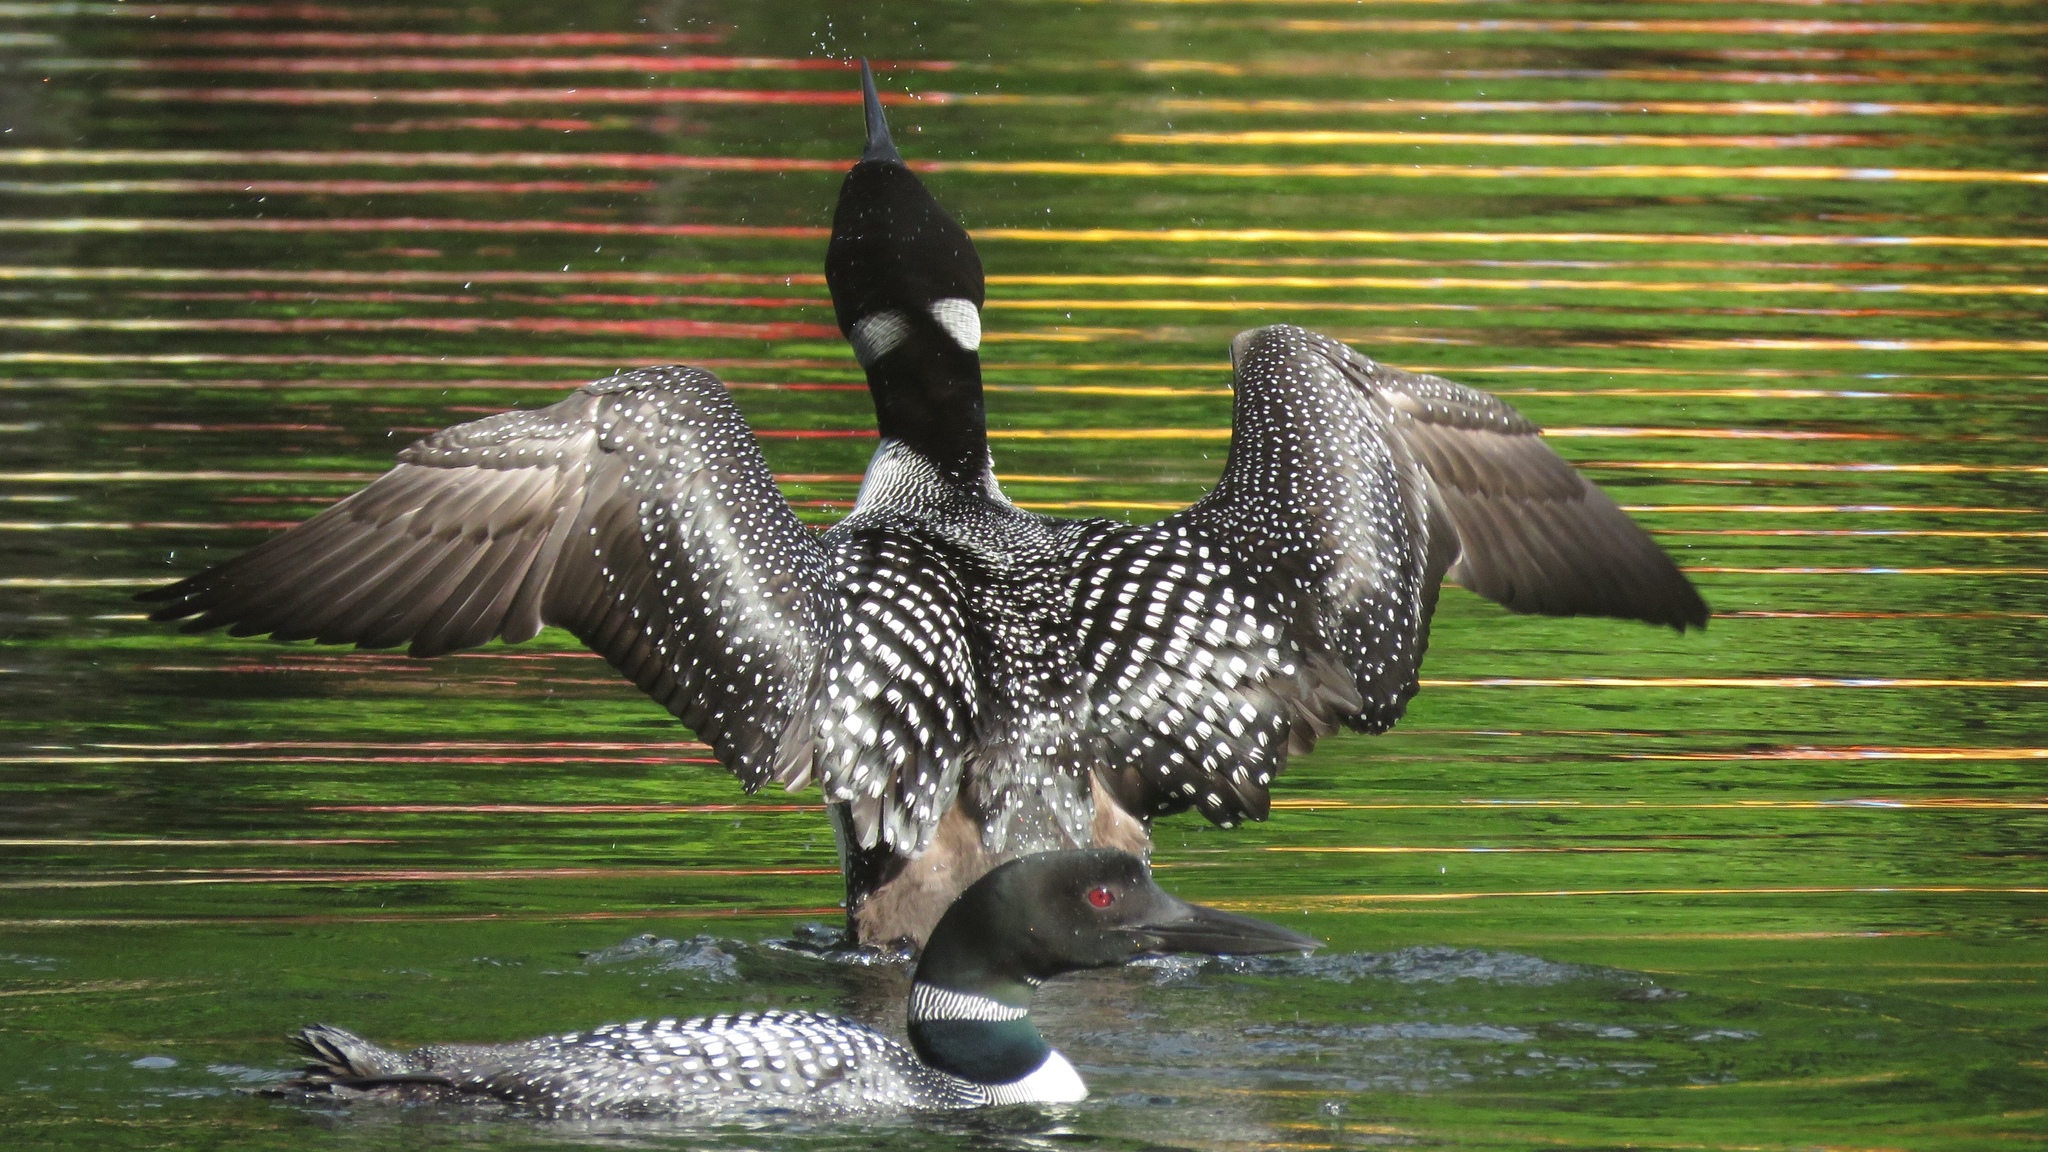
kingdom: Animalia
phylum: Chordata
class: Aves
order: Gaviiformes
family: Gaviidae
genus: Gavia
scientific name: Gavia immer
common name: Common loon
